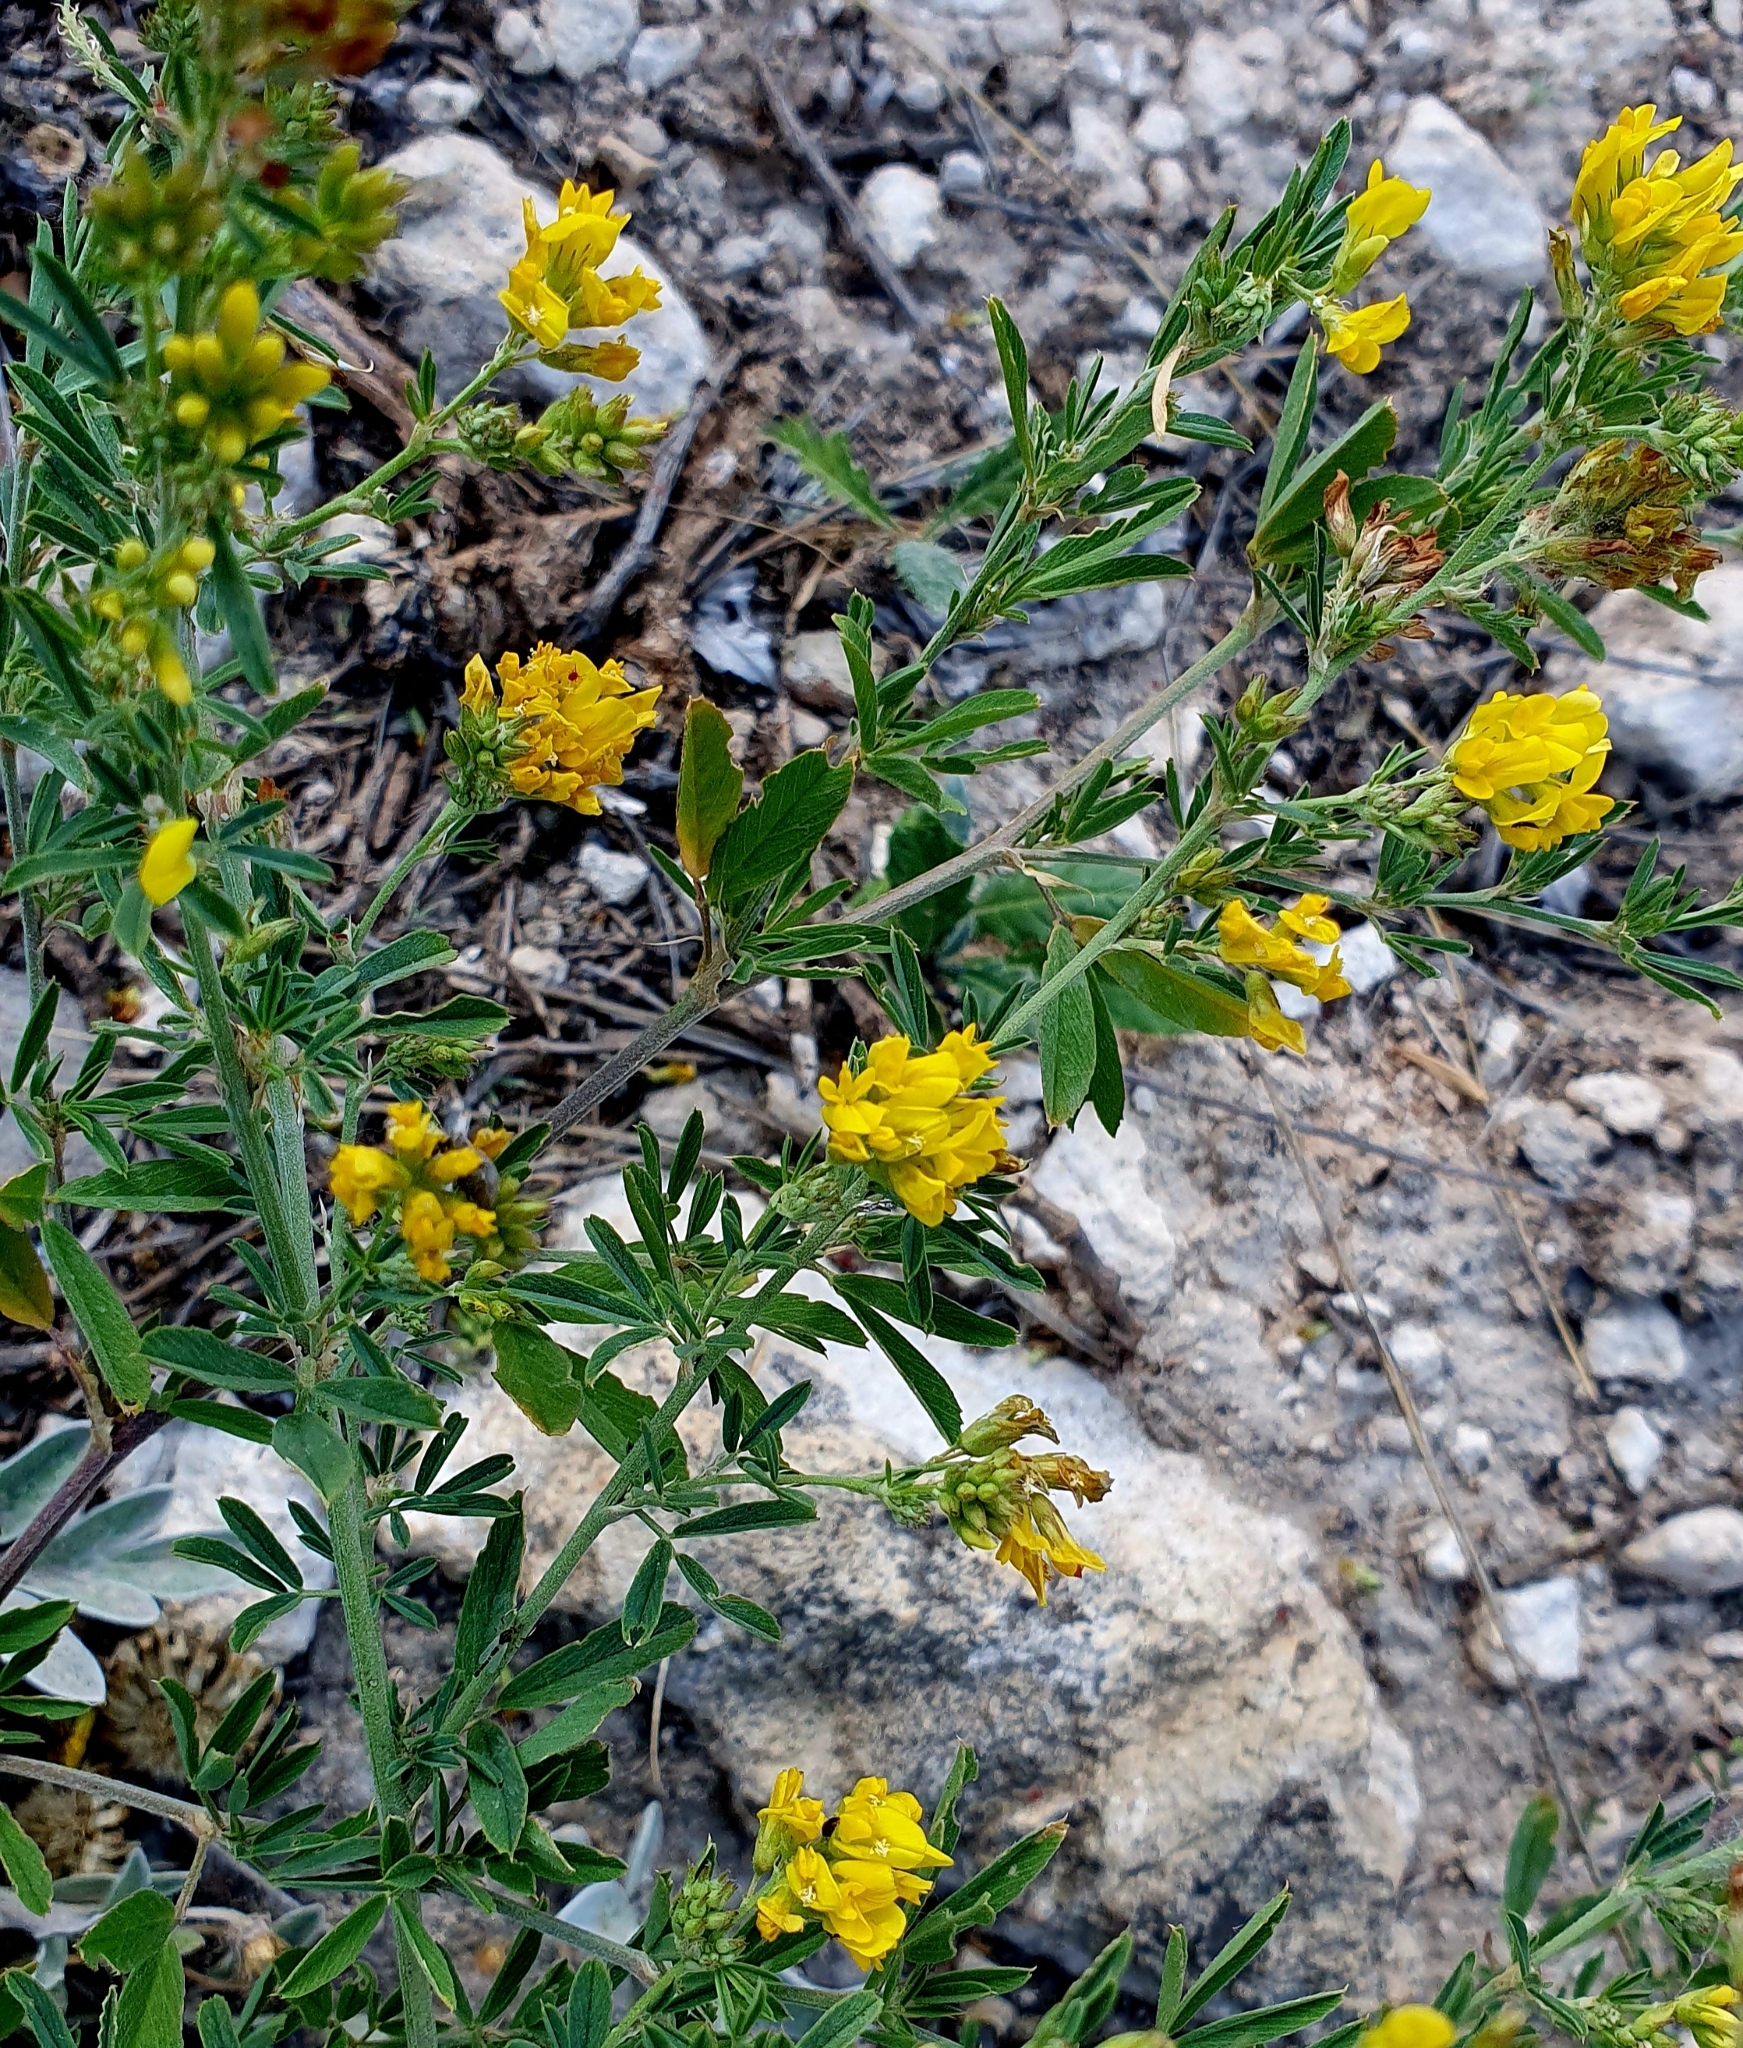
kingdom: Plantae
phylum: Tracheophyta
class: Magnoliopsida
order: Fabales
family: Fabaceae
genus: Medicago
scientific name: Medicago falcata
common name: Sickle medick
